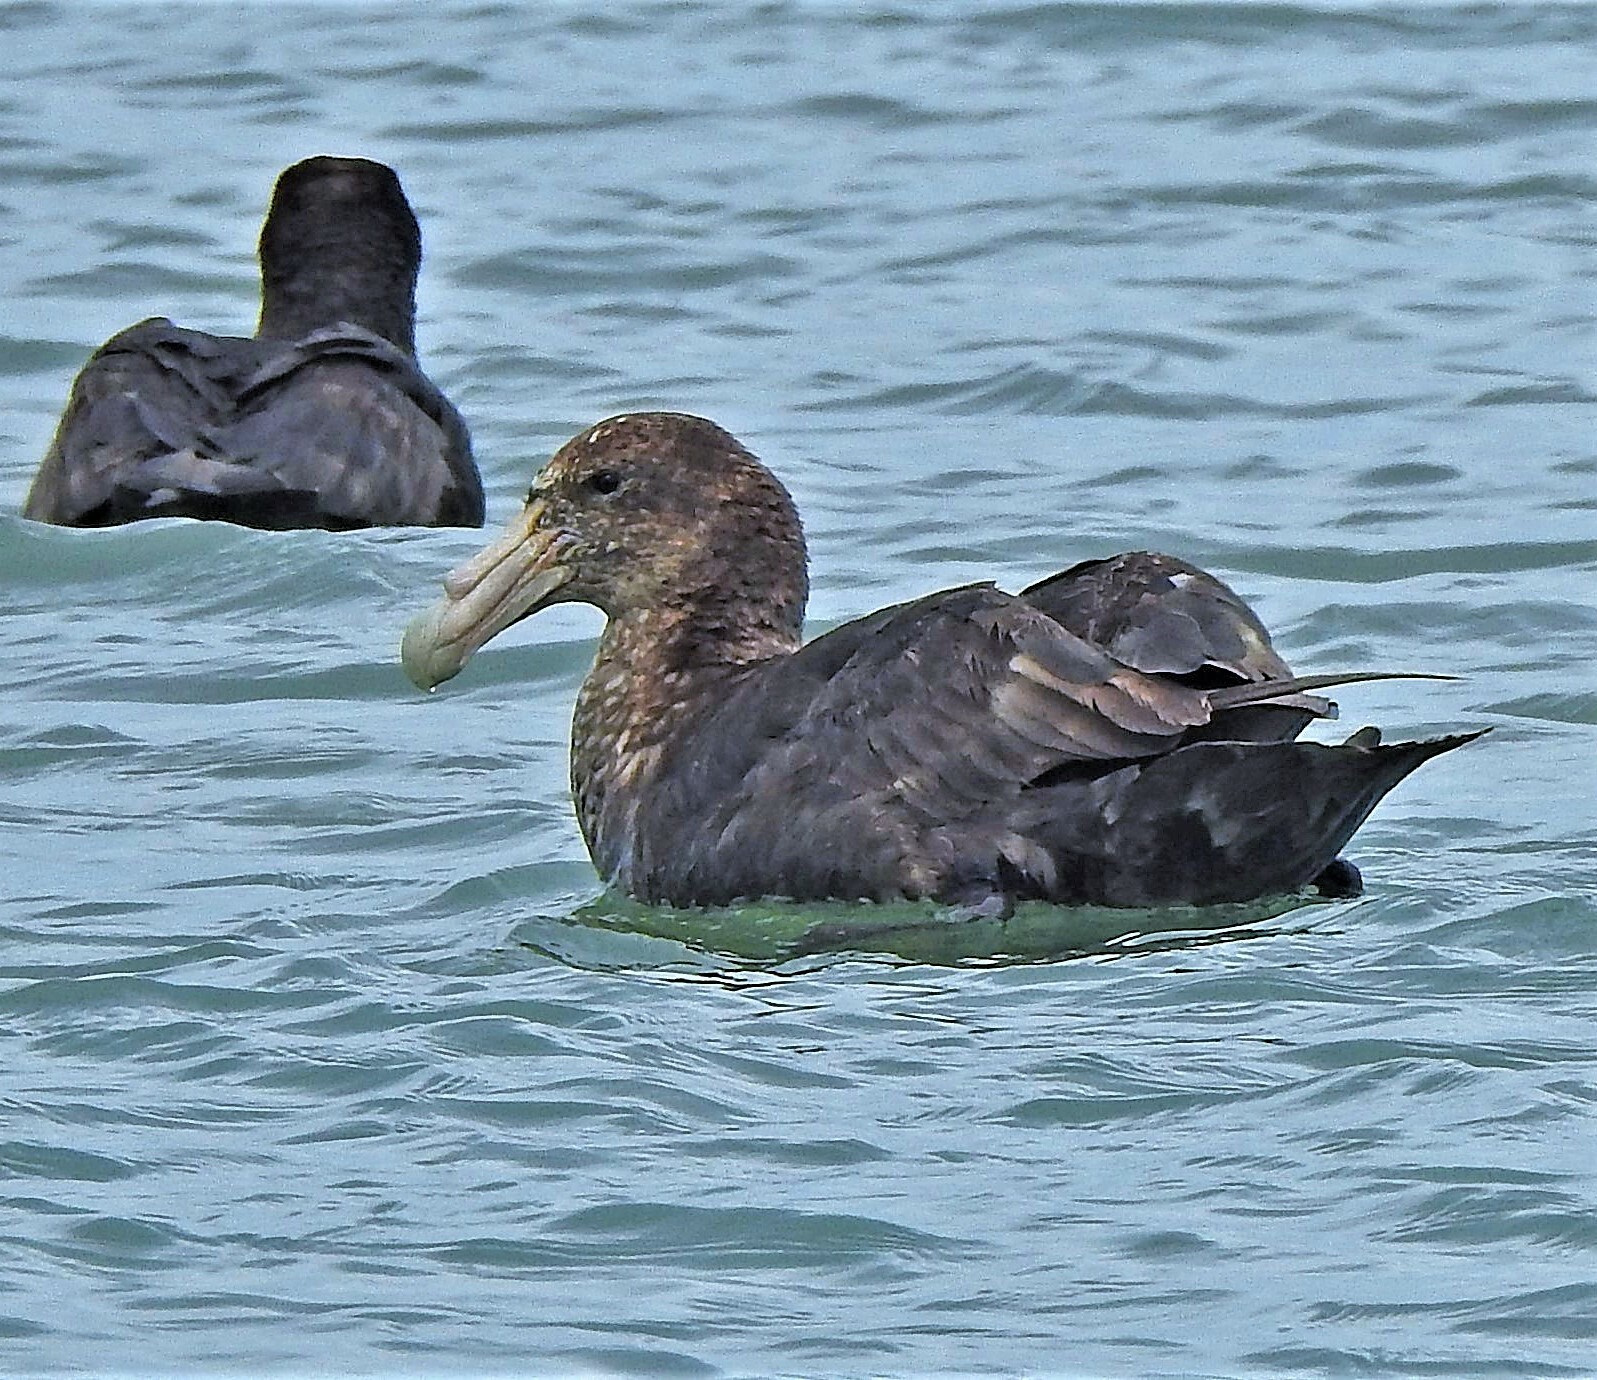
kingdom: Animalia
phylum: Chordata
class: Aves
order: Procellariiformes
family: Procellariidae
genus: Macronectes
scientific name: Macronectes giganteus
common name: Southern giant petrel
